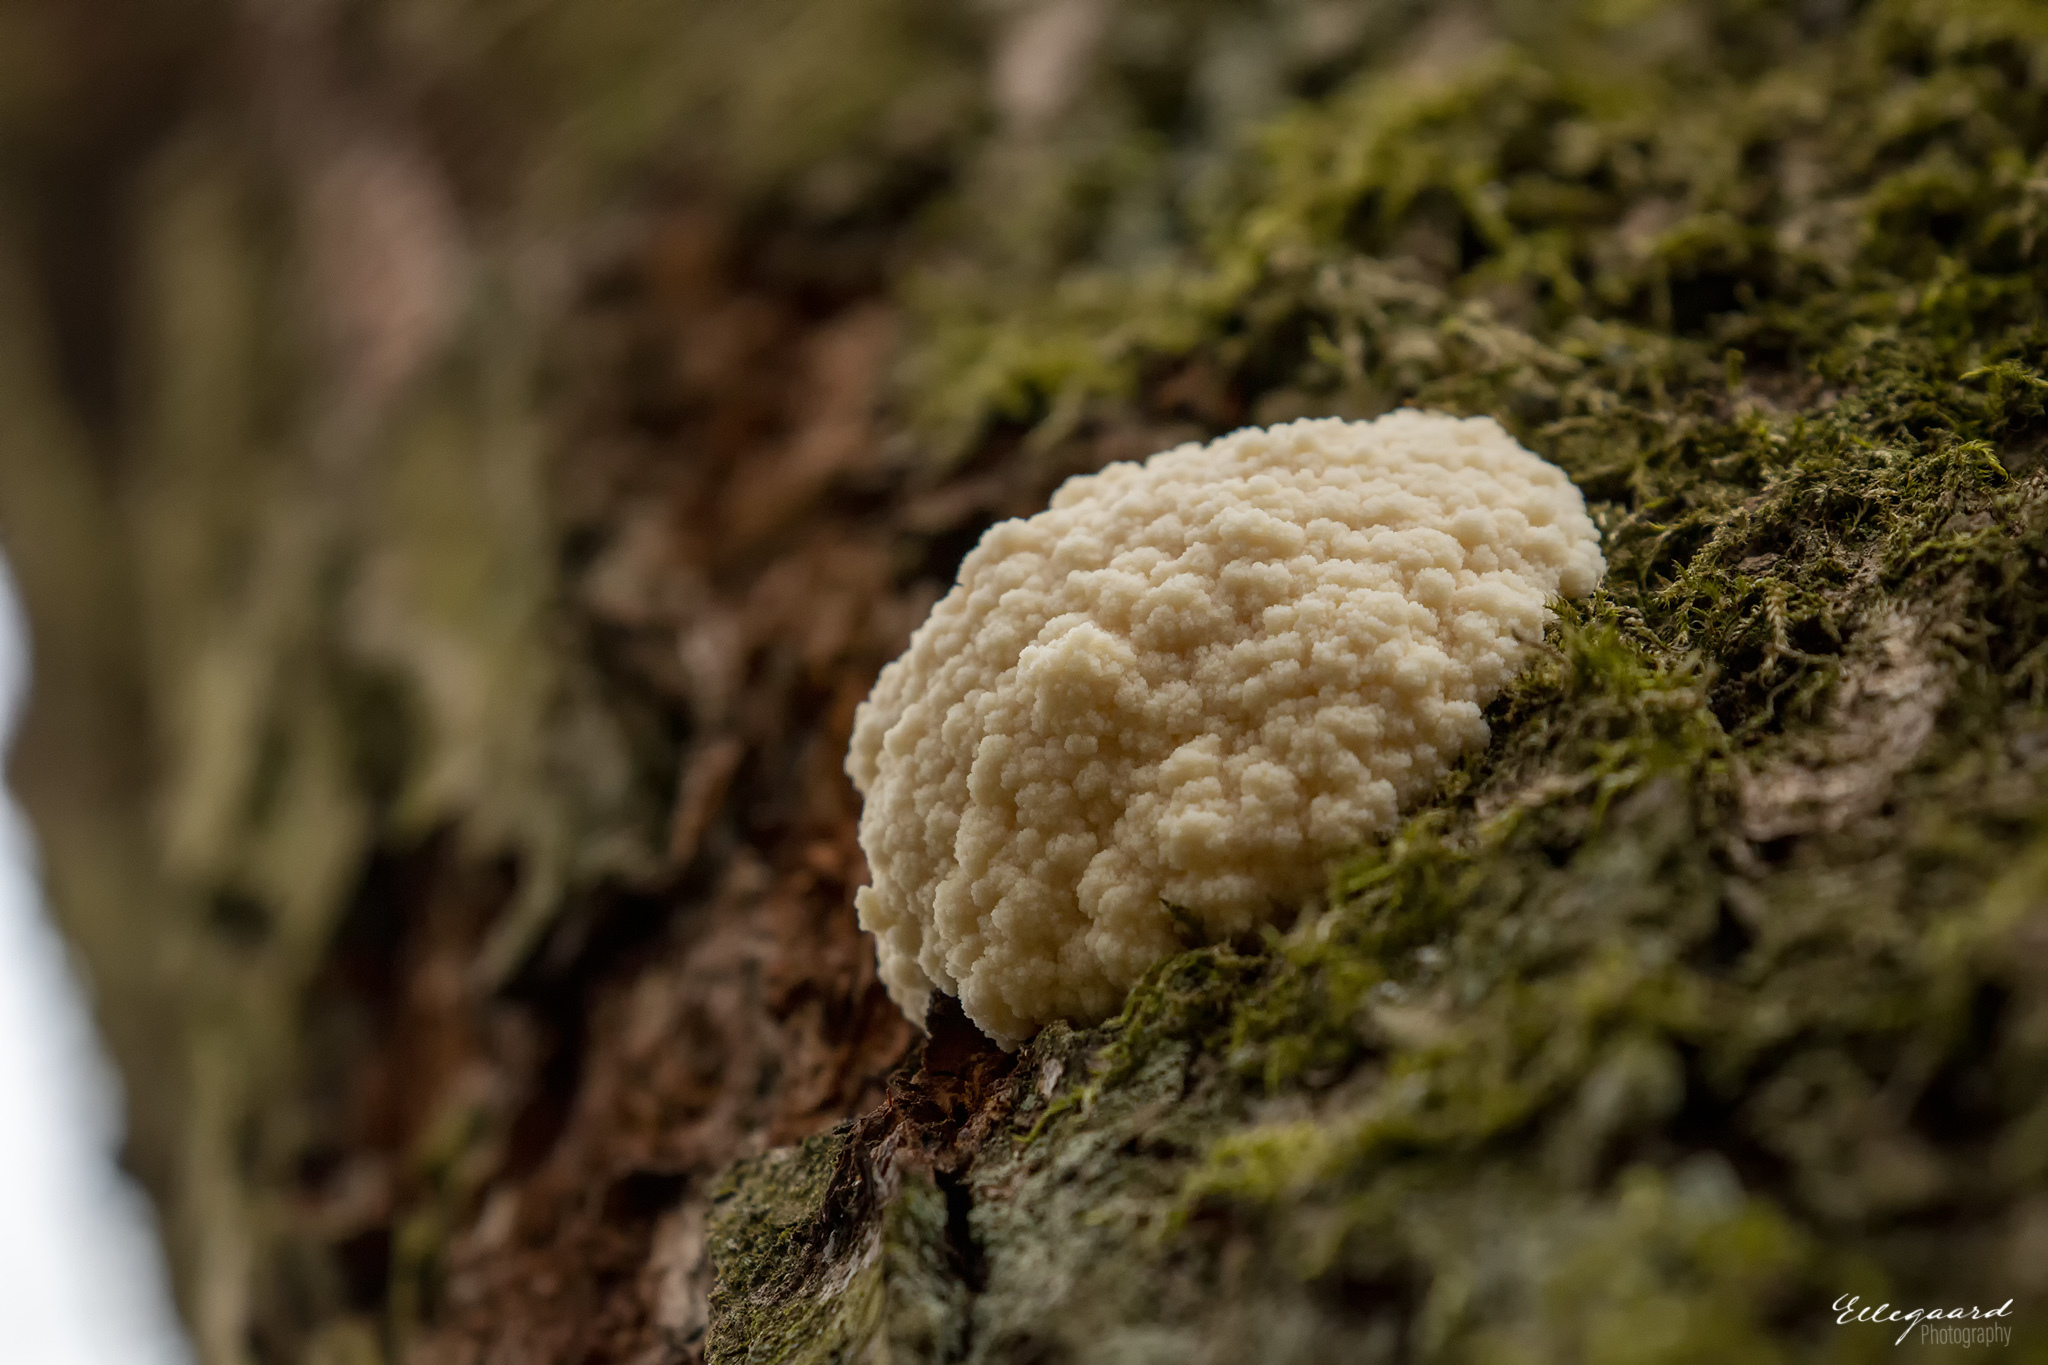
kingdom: Protozoa
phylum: Mycetozoa
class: Myxomycetes
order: Cribrariales
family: Tubiferaceae
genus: Reticularia
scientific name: Reticularia lycoperdon
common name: False puffball
